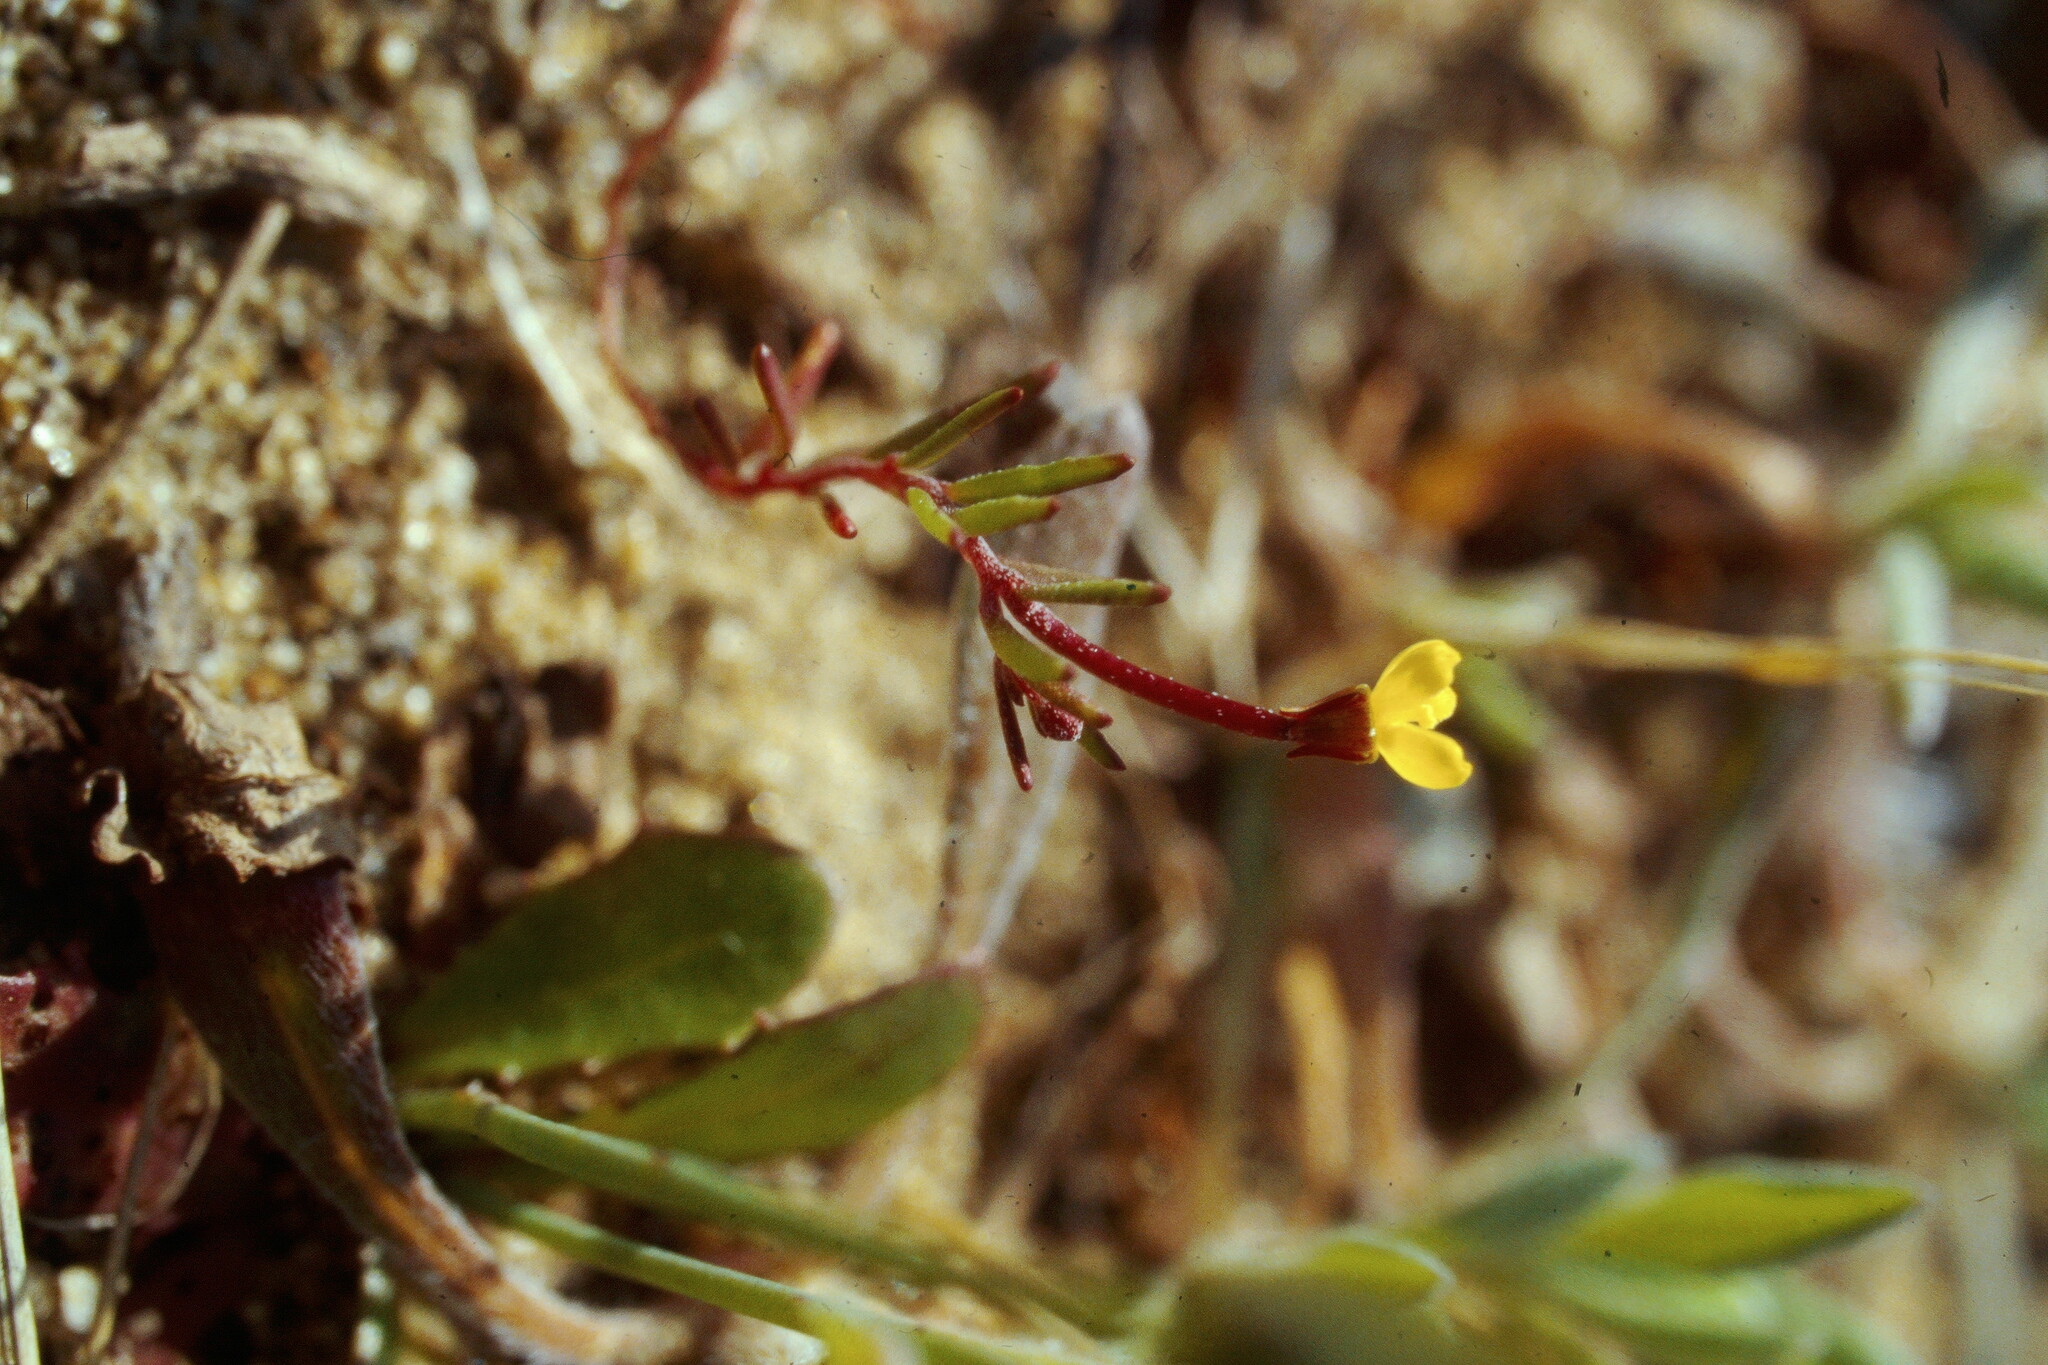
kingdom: Plantae
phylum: Tracheophyta
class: Magnoliopsida
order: Myrtales
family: Onagraceae
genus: Camissonia
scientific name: Camissonia strigulosa
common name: Contorted-primrose
